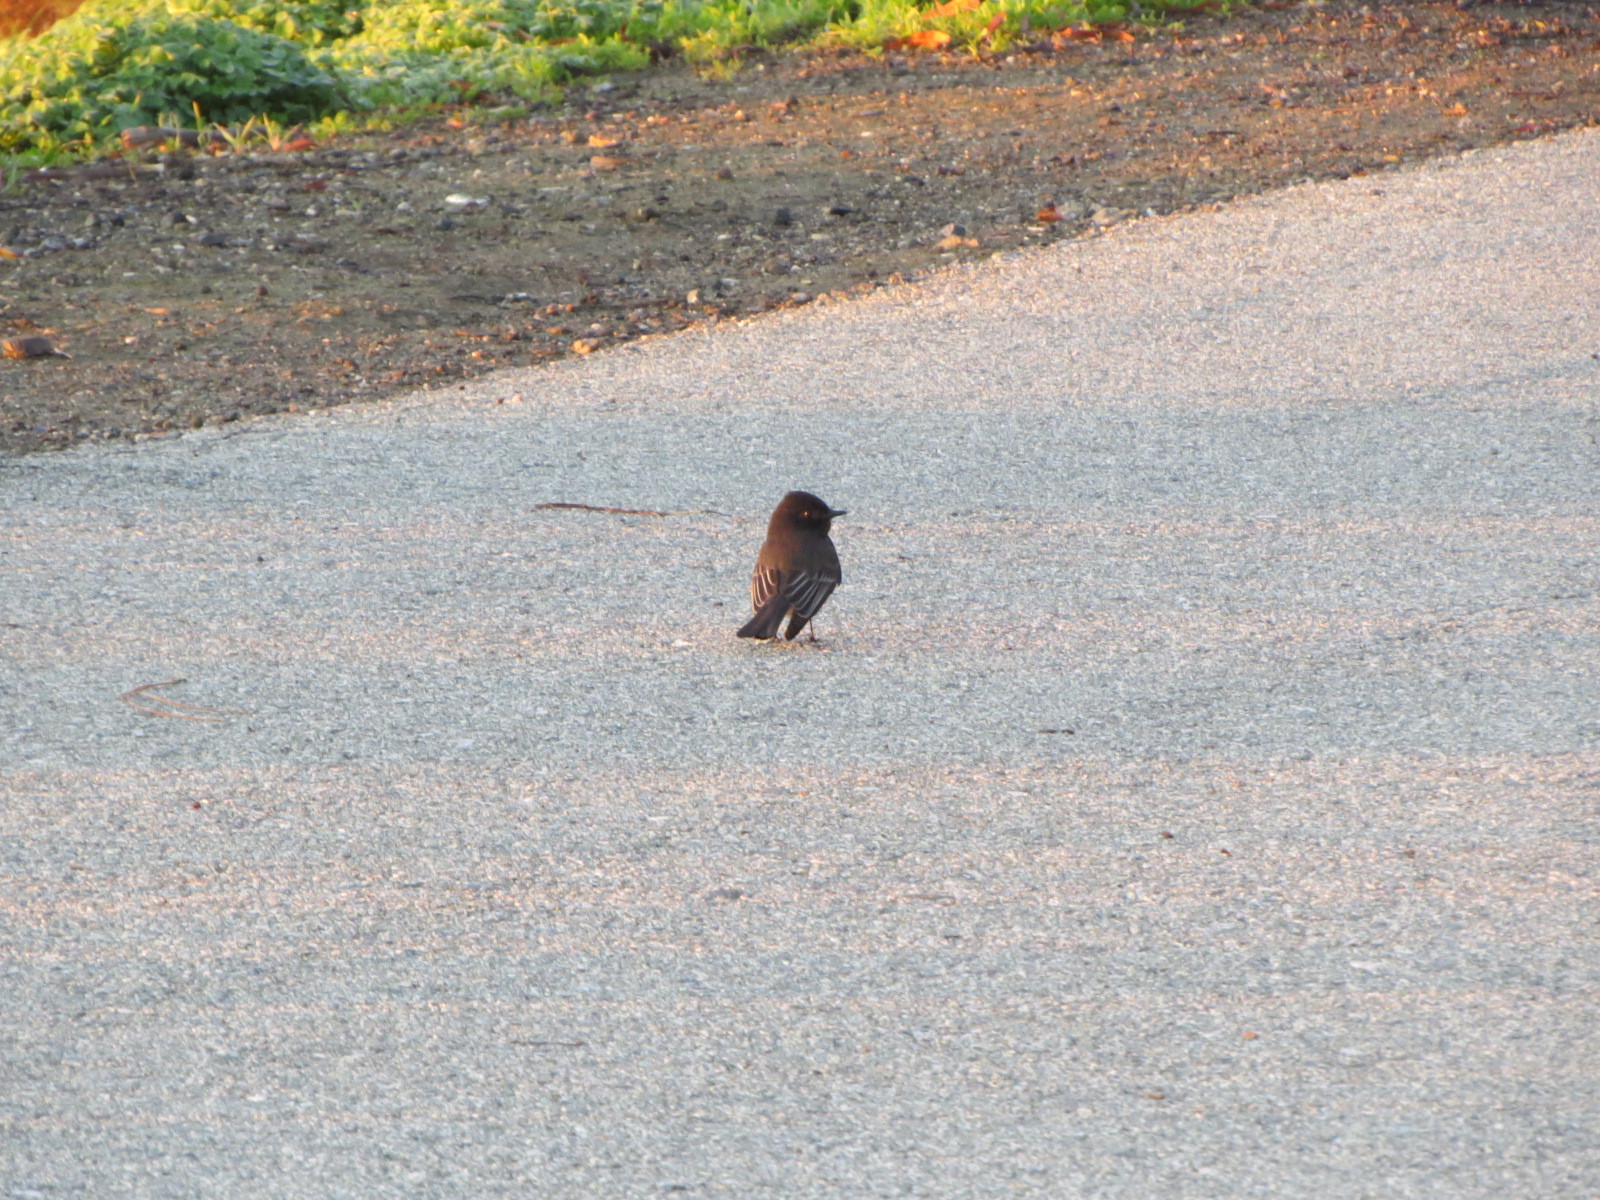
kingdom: Animalia
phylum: Chordata
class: Aves
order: Passeriformes
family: Tyrannidae
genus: Sayornis
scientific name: Sayornis nigricans
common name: Black phoebe
